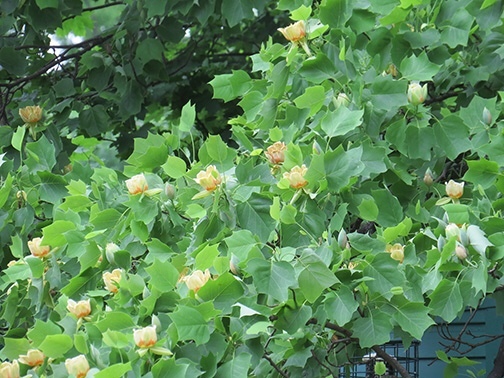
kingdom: Plantae
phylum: Tracheophyta
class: Magnoliopsida
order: Magnoliales
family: Magnoliaceae
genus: Liriodendron
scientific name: Liriodendron tulipifera
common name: Tulip tree
